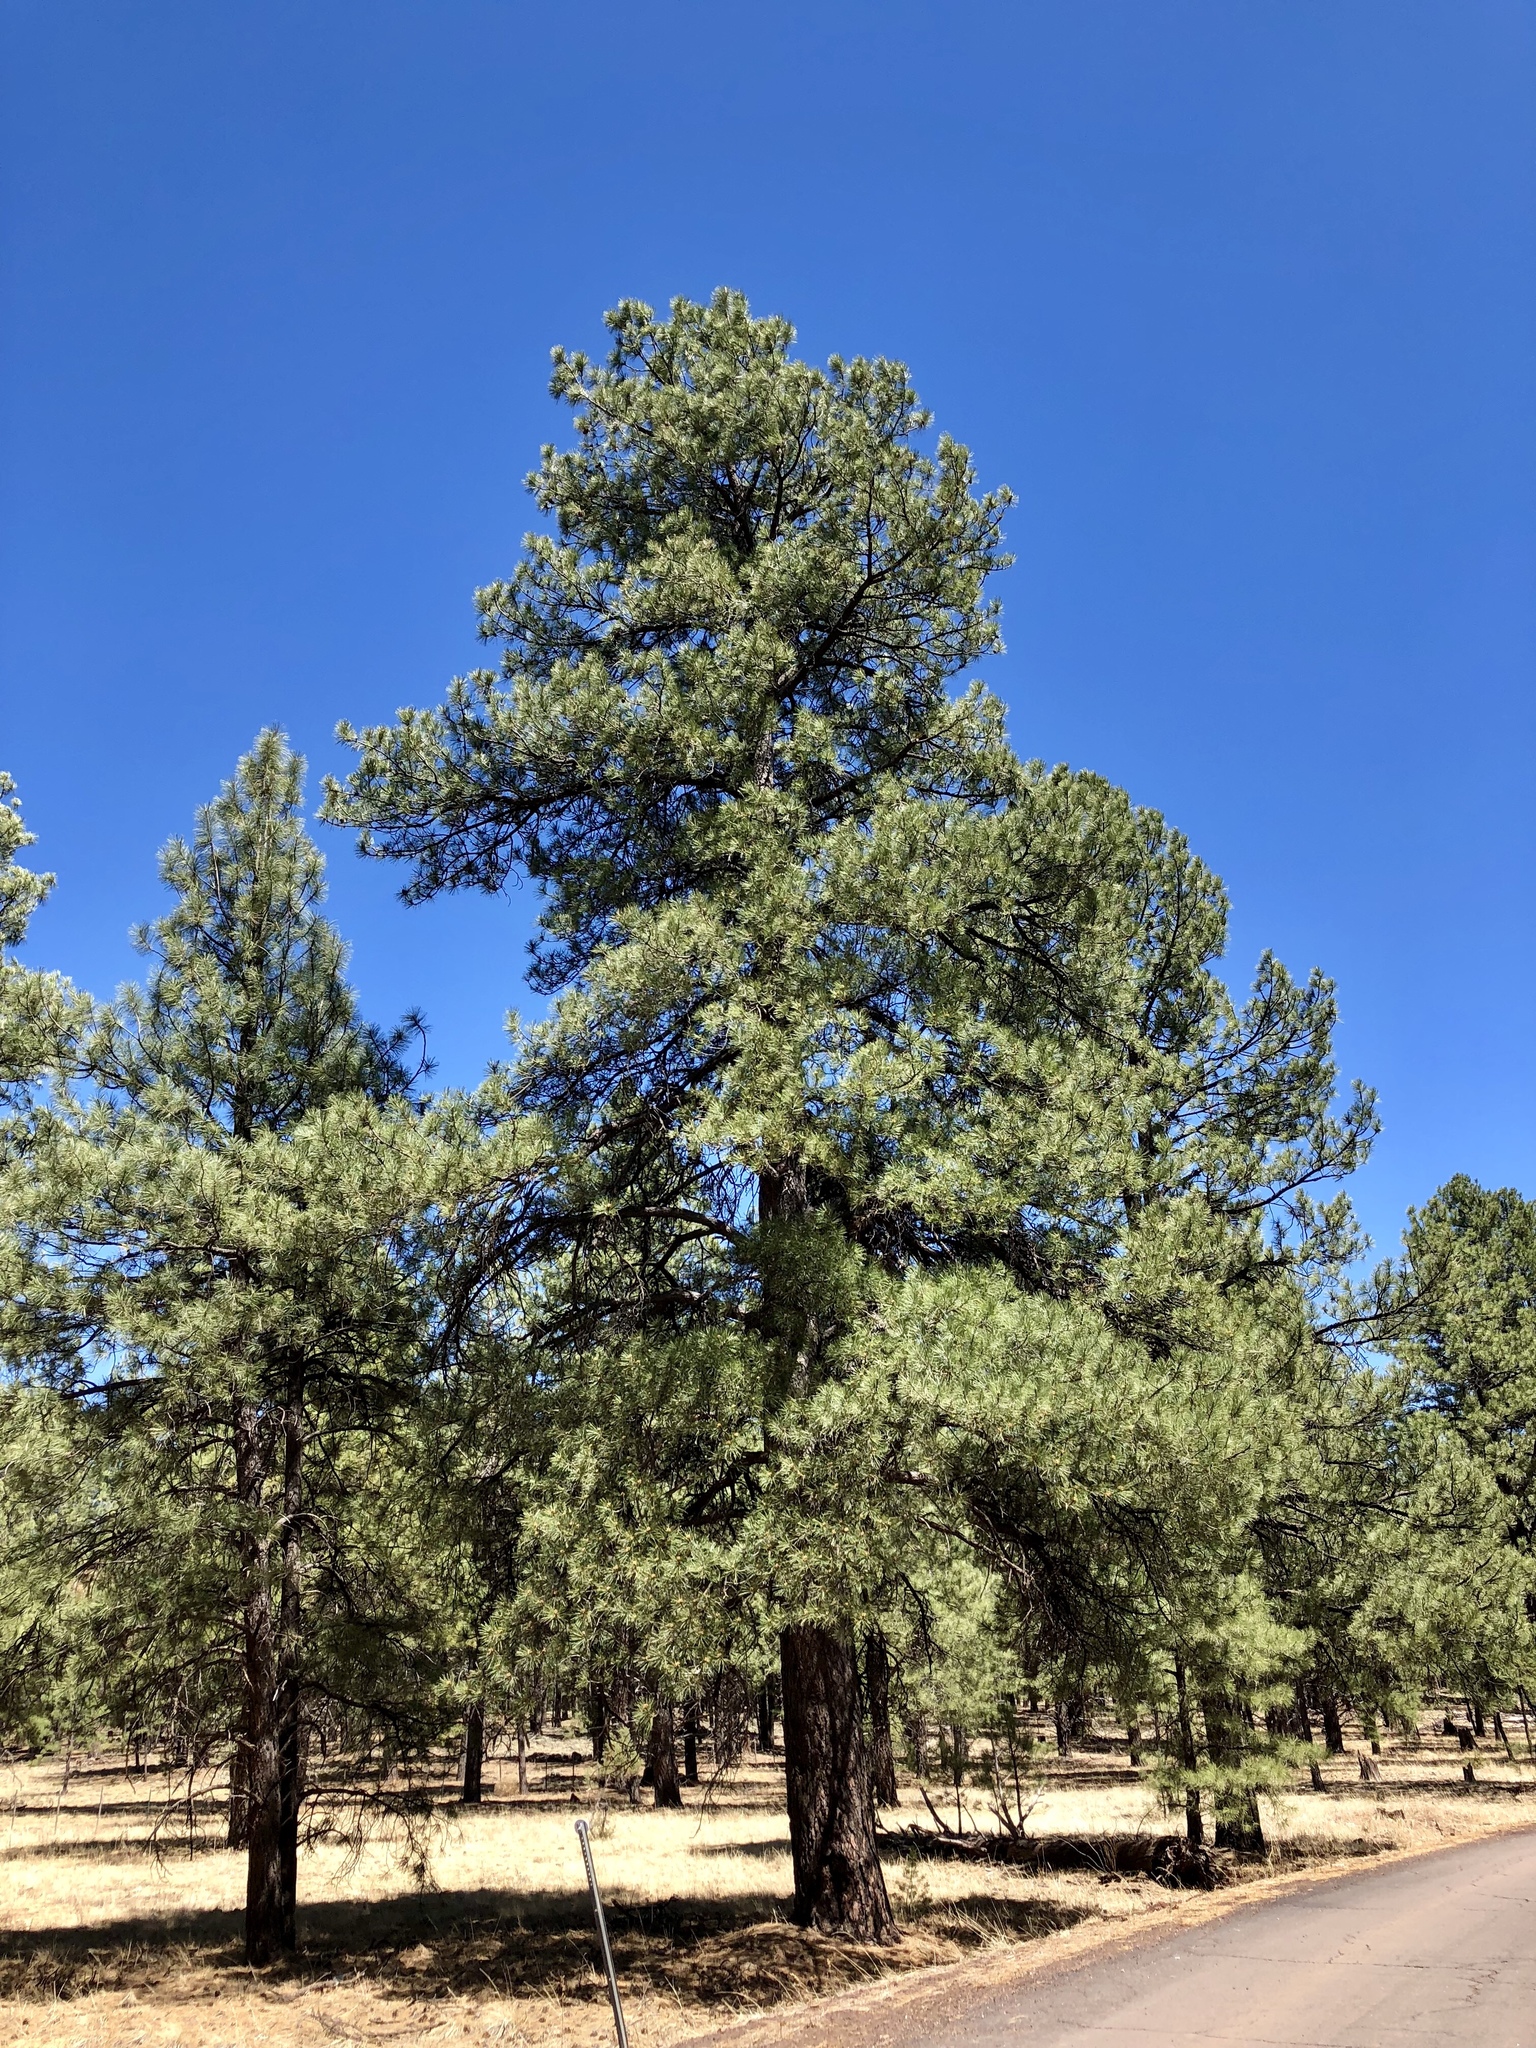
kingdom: Plantae
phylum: Tracheophyta
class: Pinopsida
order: Pinales
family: Pinaceae
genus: Pinus
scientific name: Pinus ponderosa
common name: Western yellow-pine
